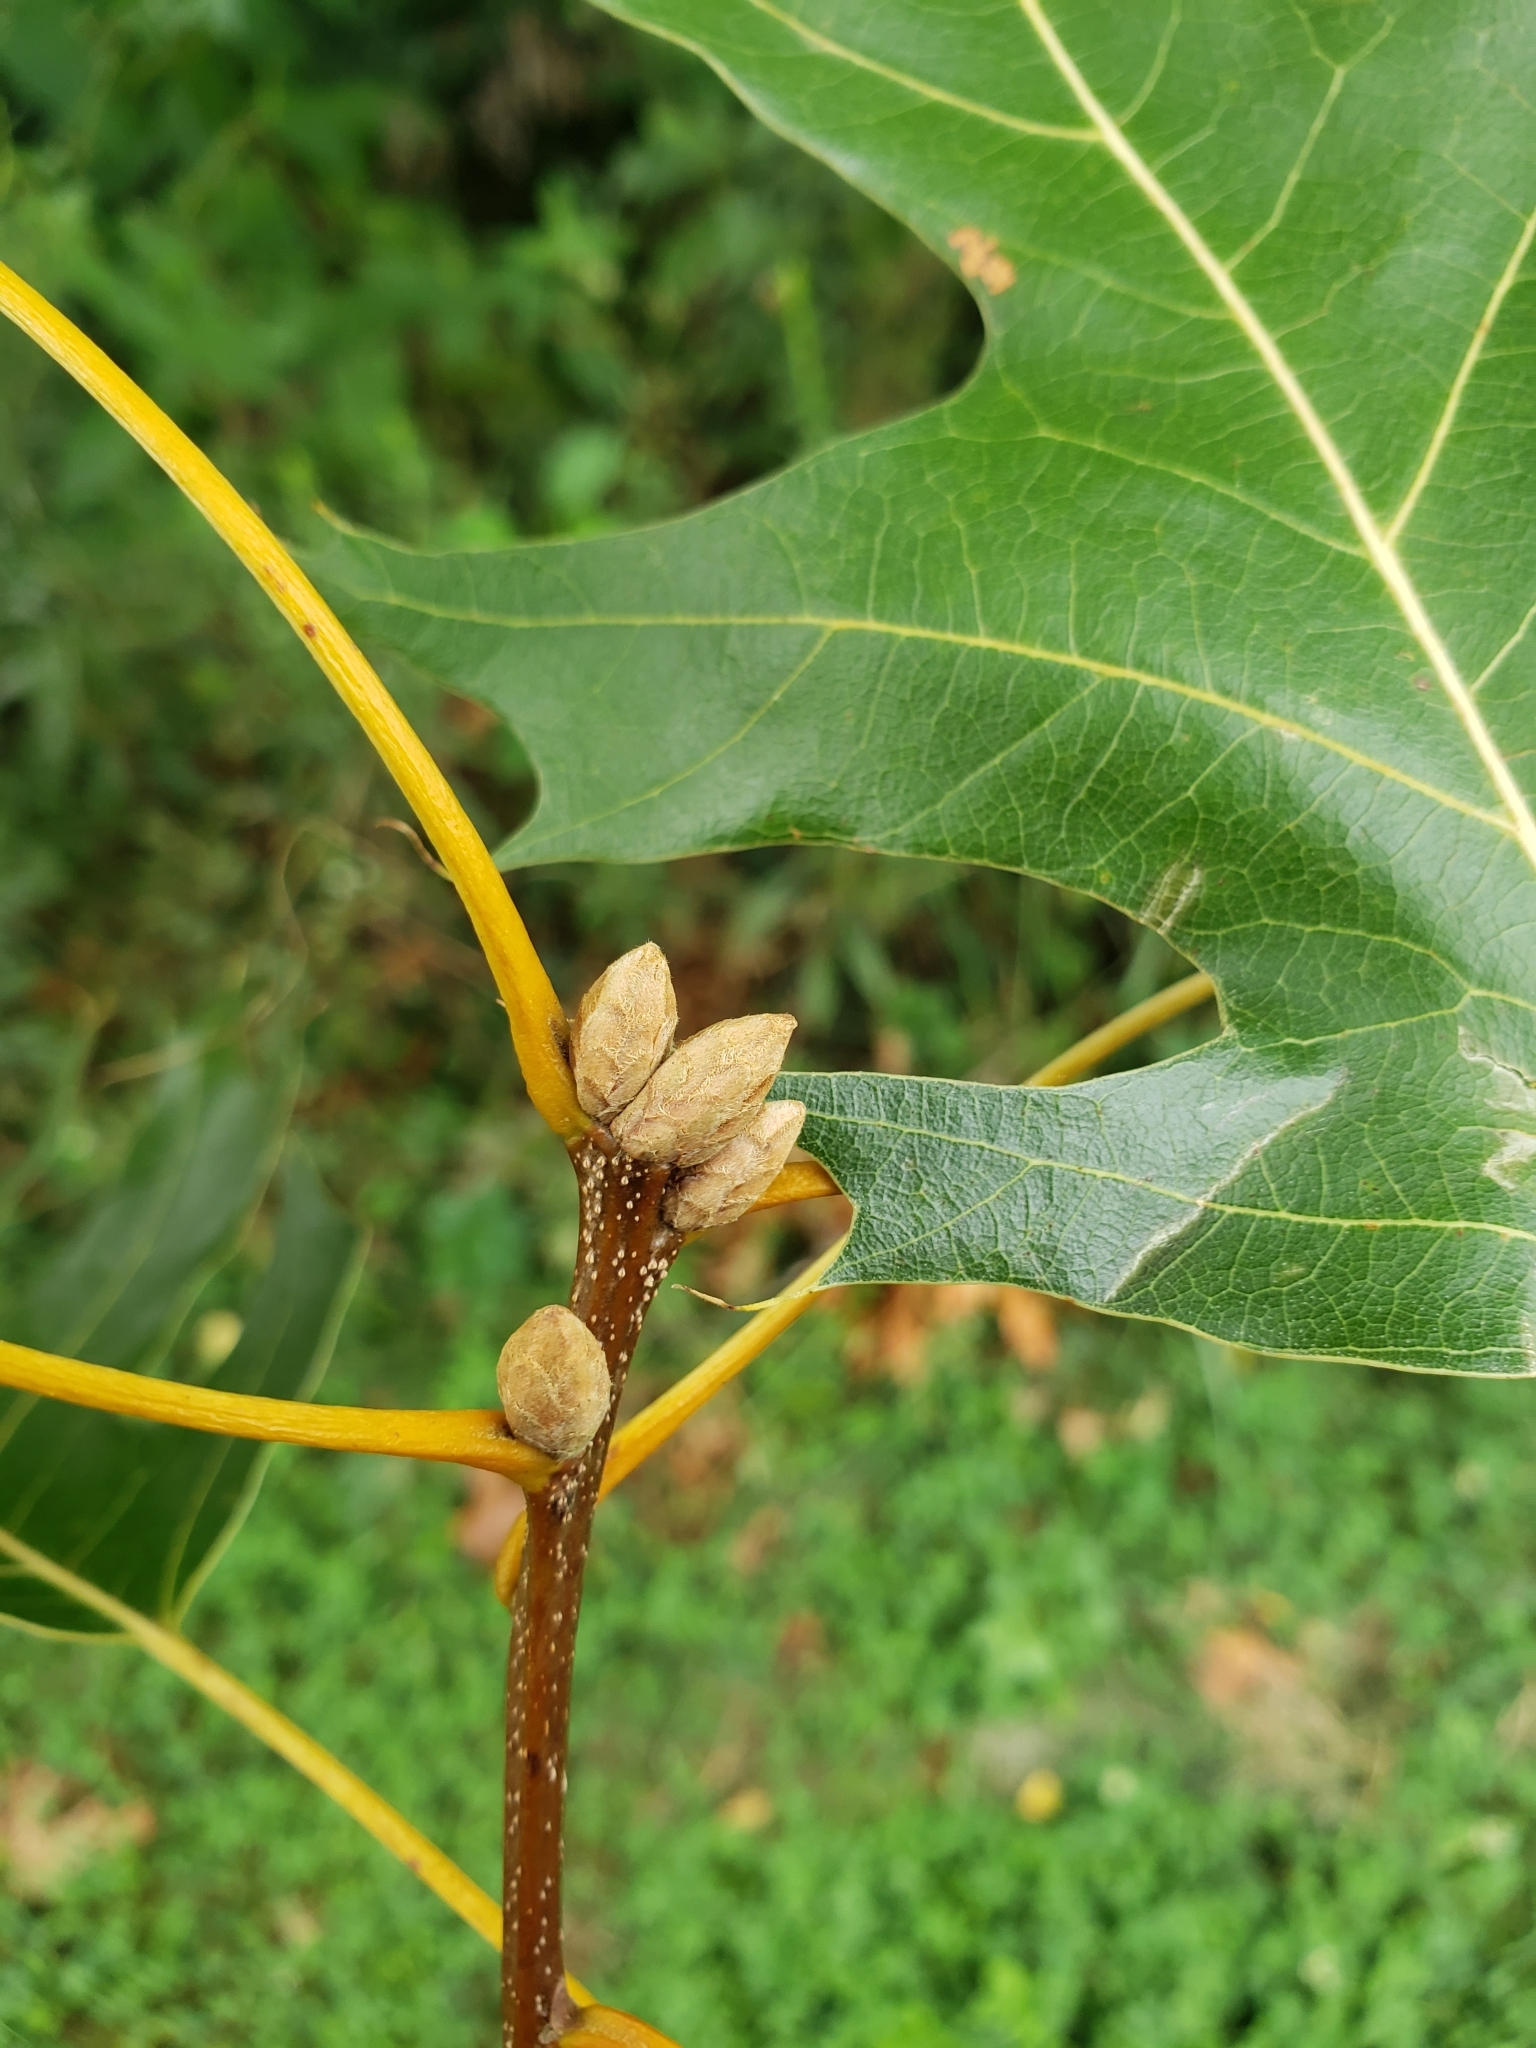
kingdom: Plantae
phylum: Tracheophyta
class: Magnoliopsida
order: Fagales
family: Fagaceae
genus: Quercus
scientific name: Quercus velutina
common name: Black oak
